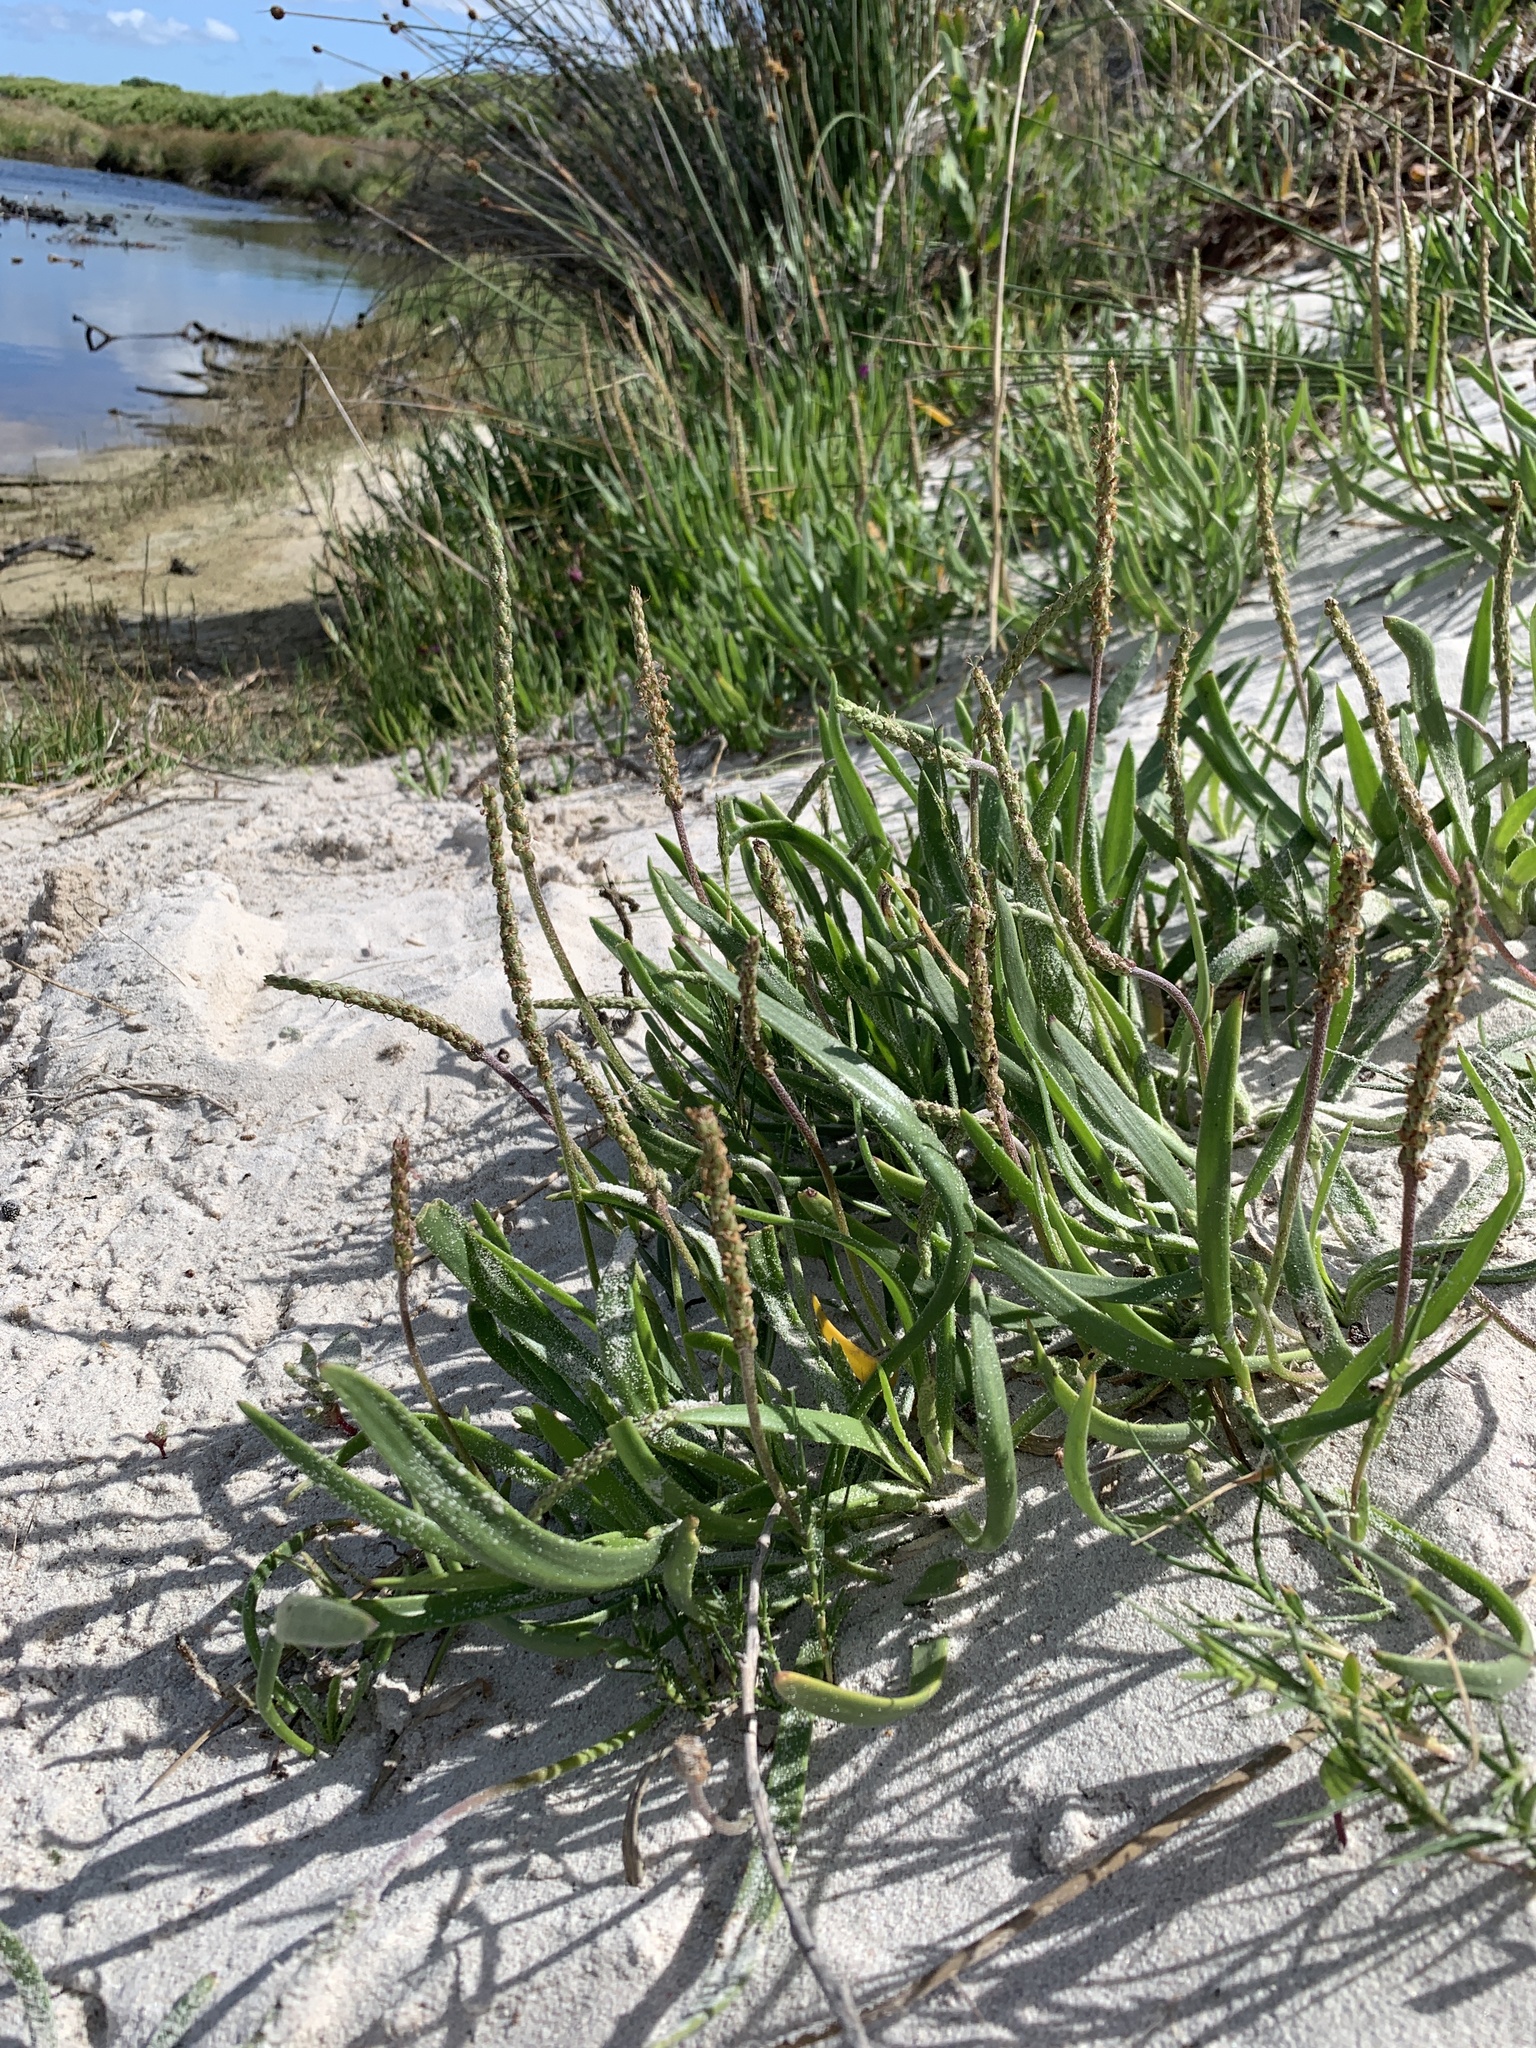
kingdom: Plantae
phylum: Tracheophyta
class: Magnoliopsida
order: Lamiales
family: Plantaginaceae
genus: Plantago
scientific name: Plantago carnosa
